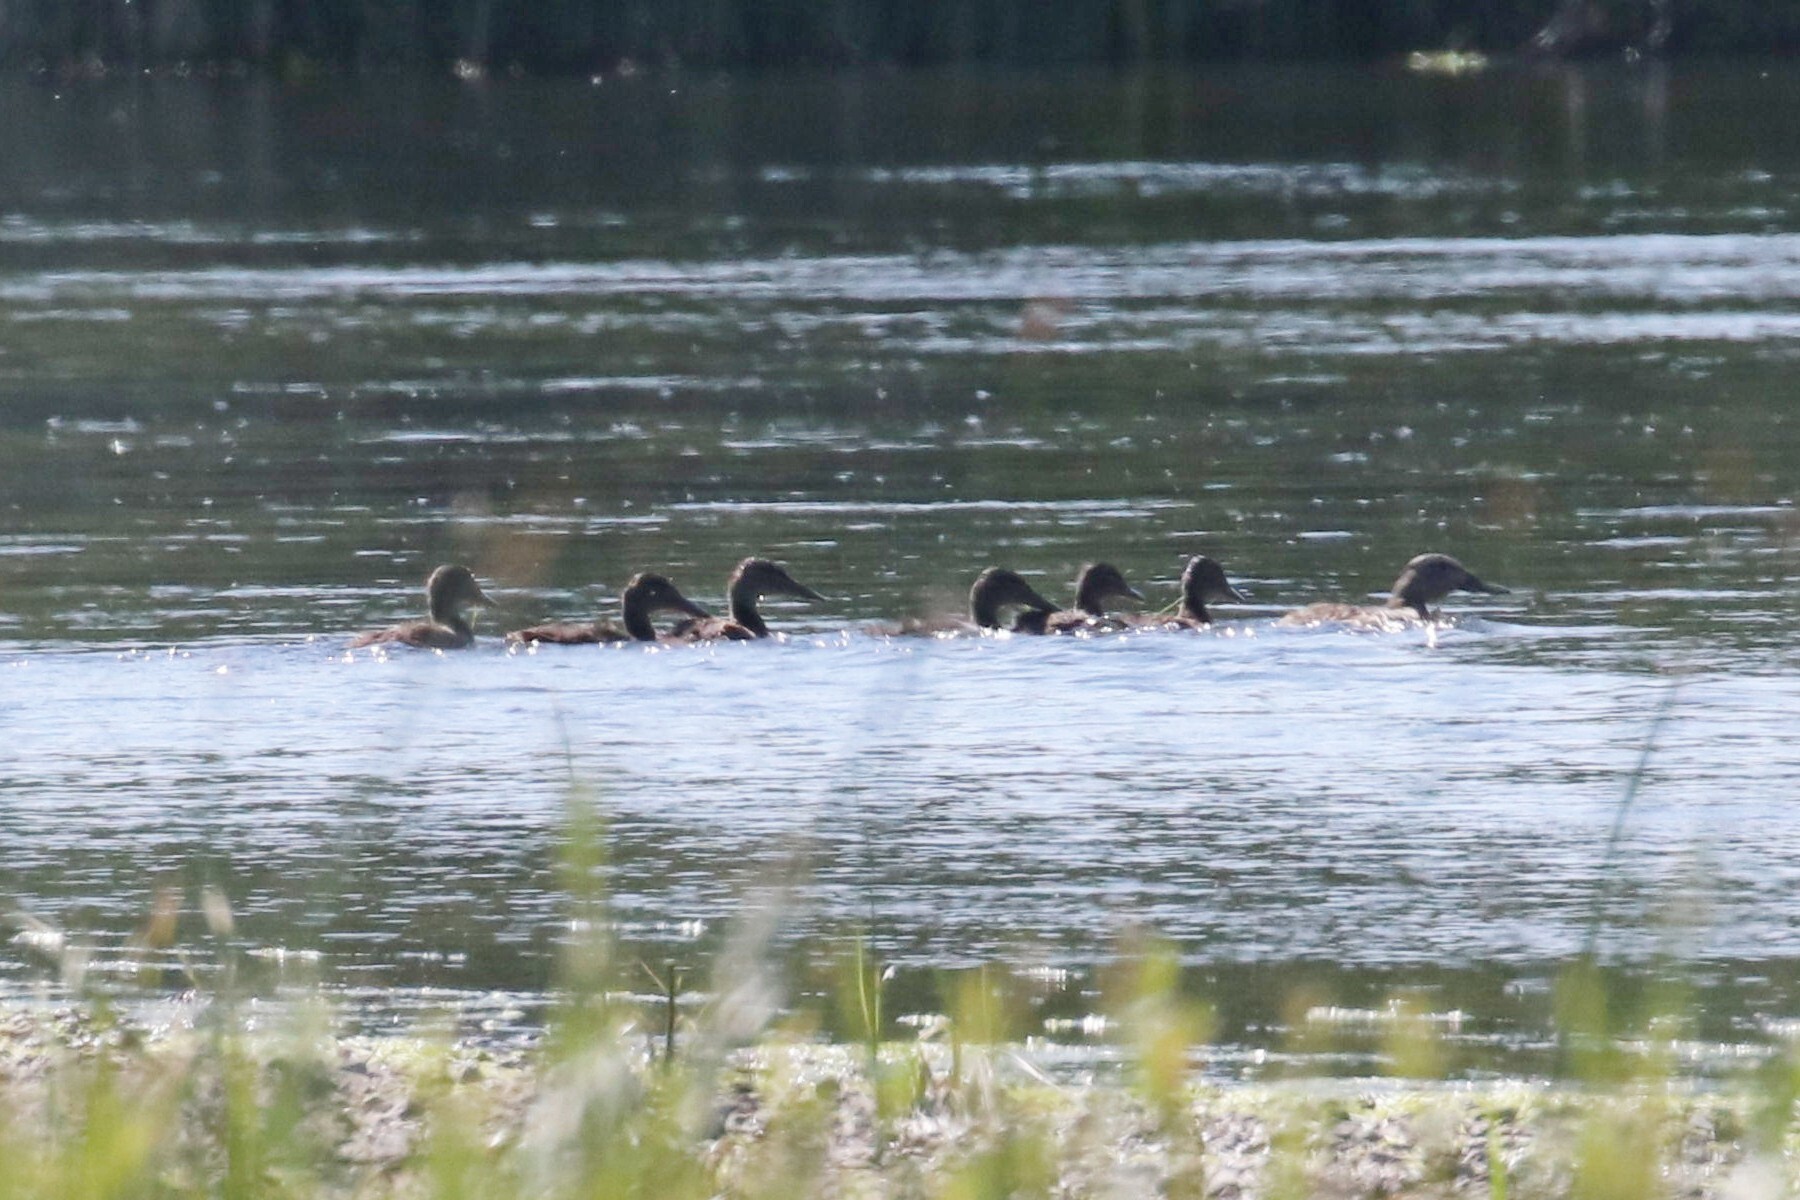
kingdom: Animalia
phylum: Chordata
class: Aves
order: Anseriformes
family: Anatidae
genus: Anas
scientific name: Anas platyrhynchos
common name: Mallard
